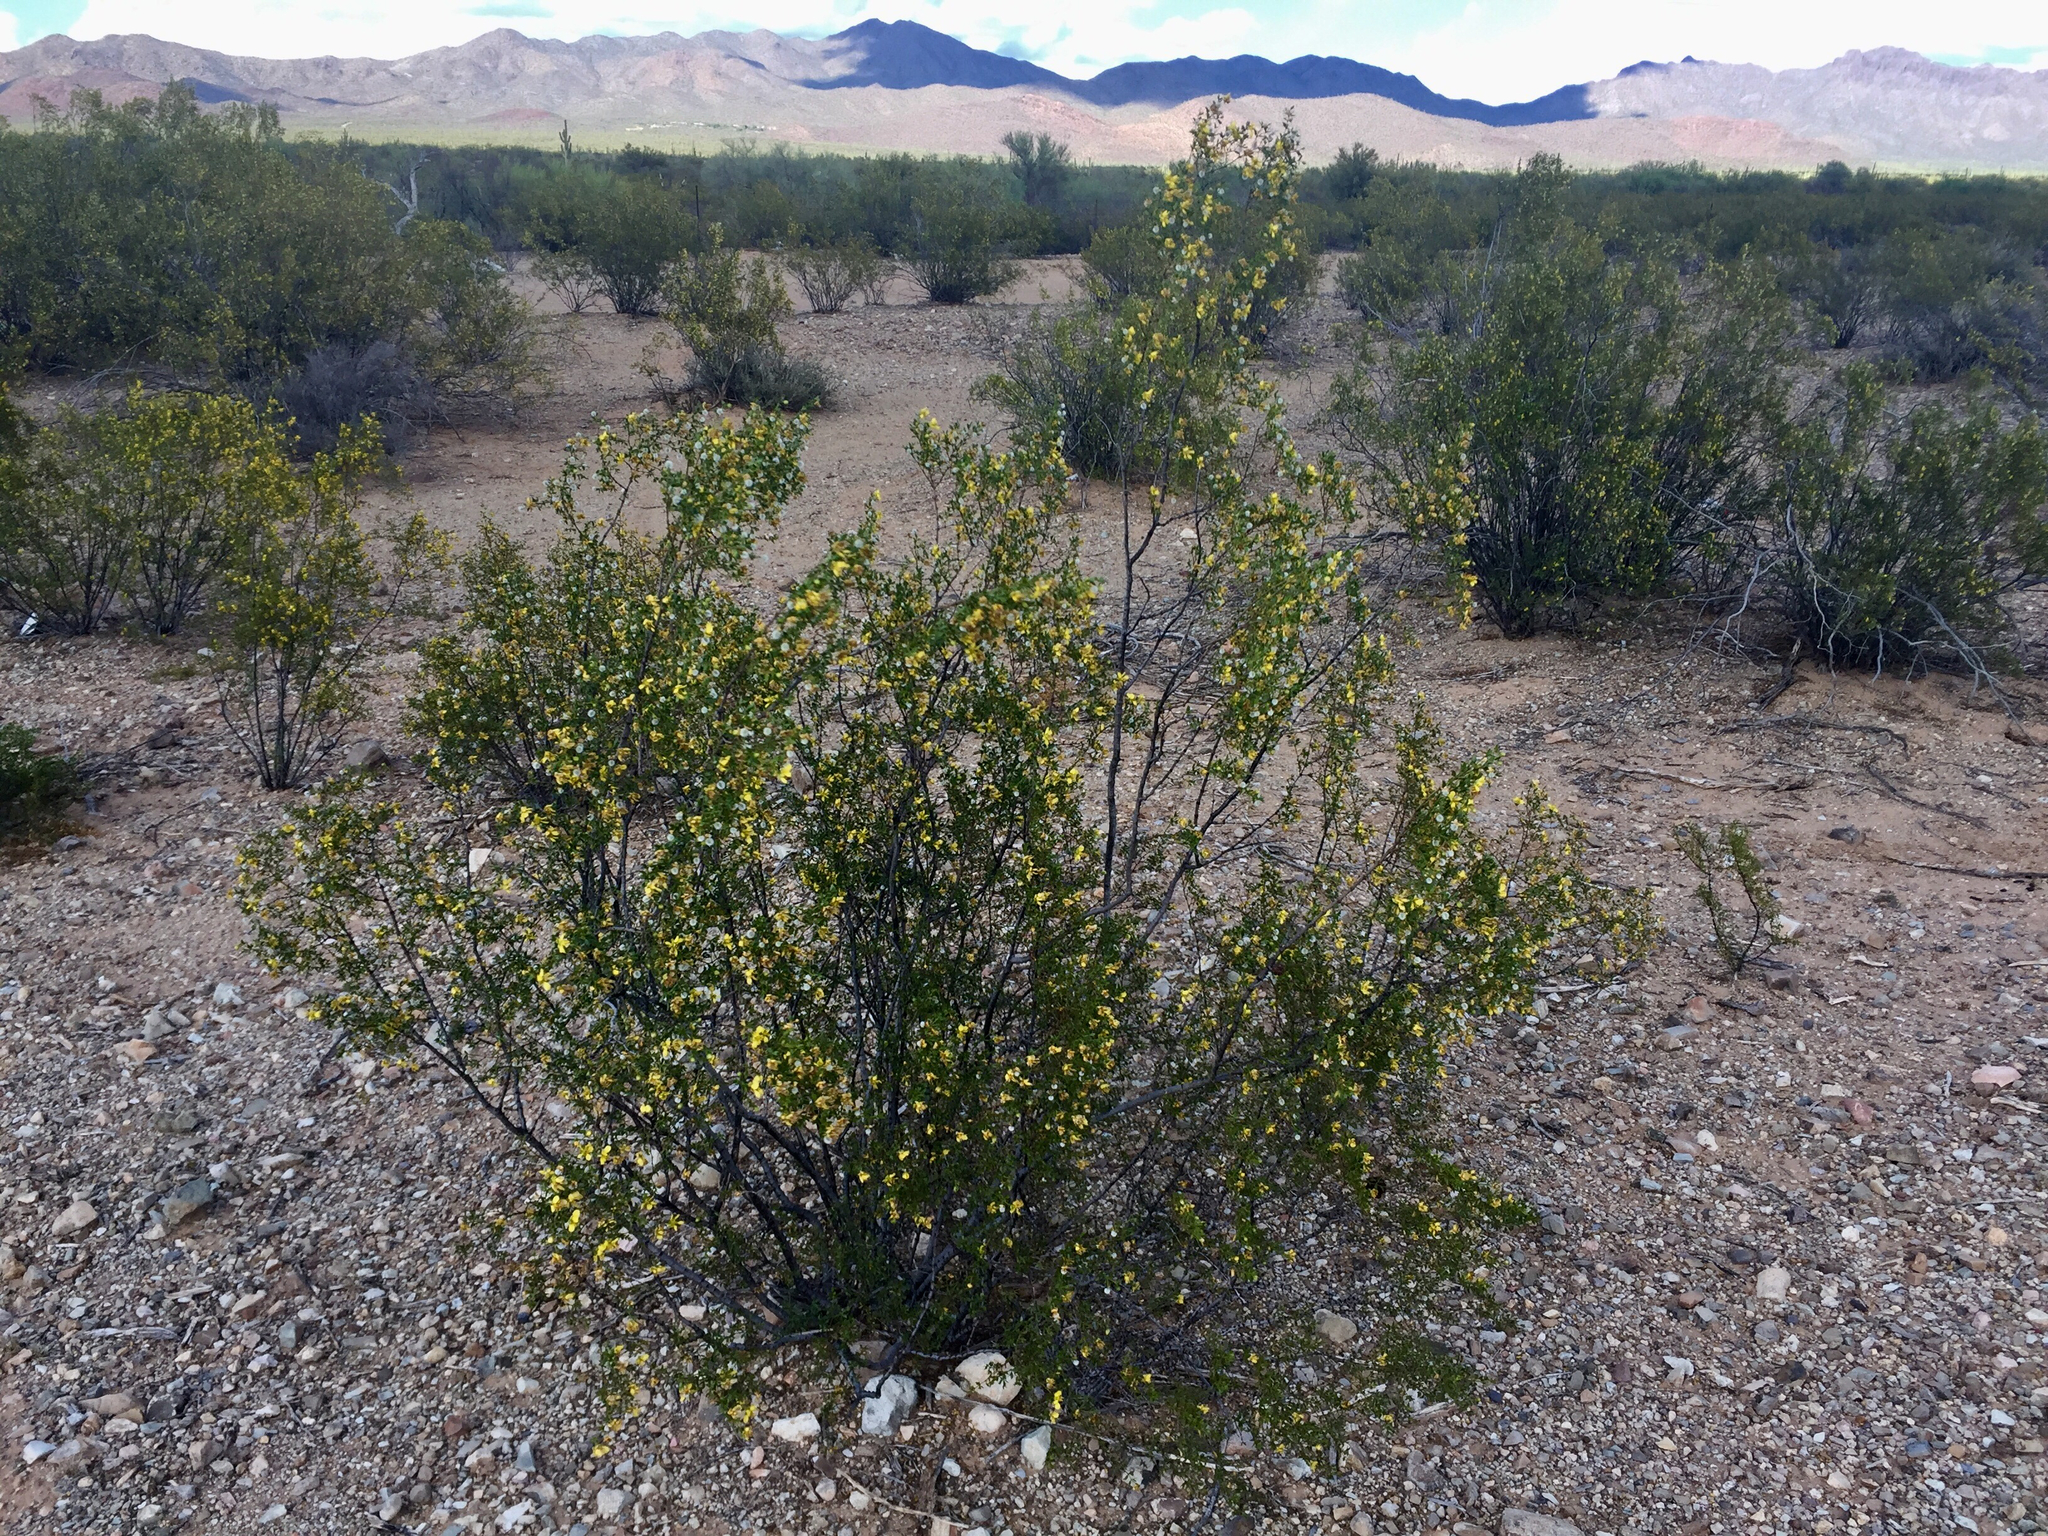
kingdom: Plantae
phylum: Tracheophyta
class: Magnoliopsida
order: Zygophyllales
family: Zygophyllaceae
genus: Larrea
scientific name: Larrea tridentata
